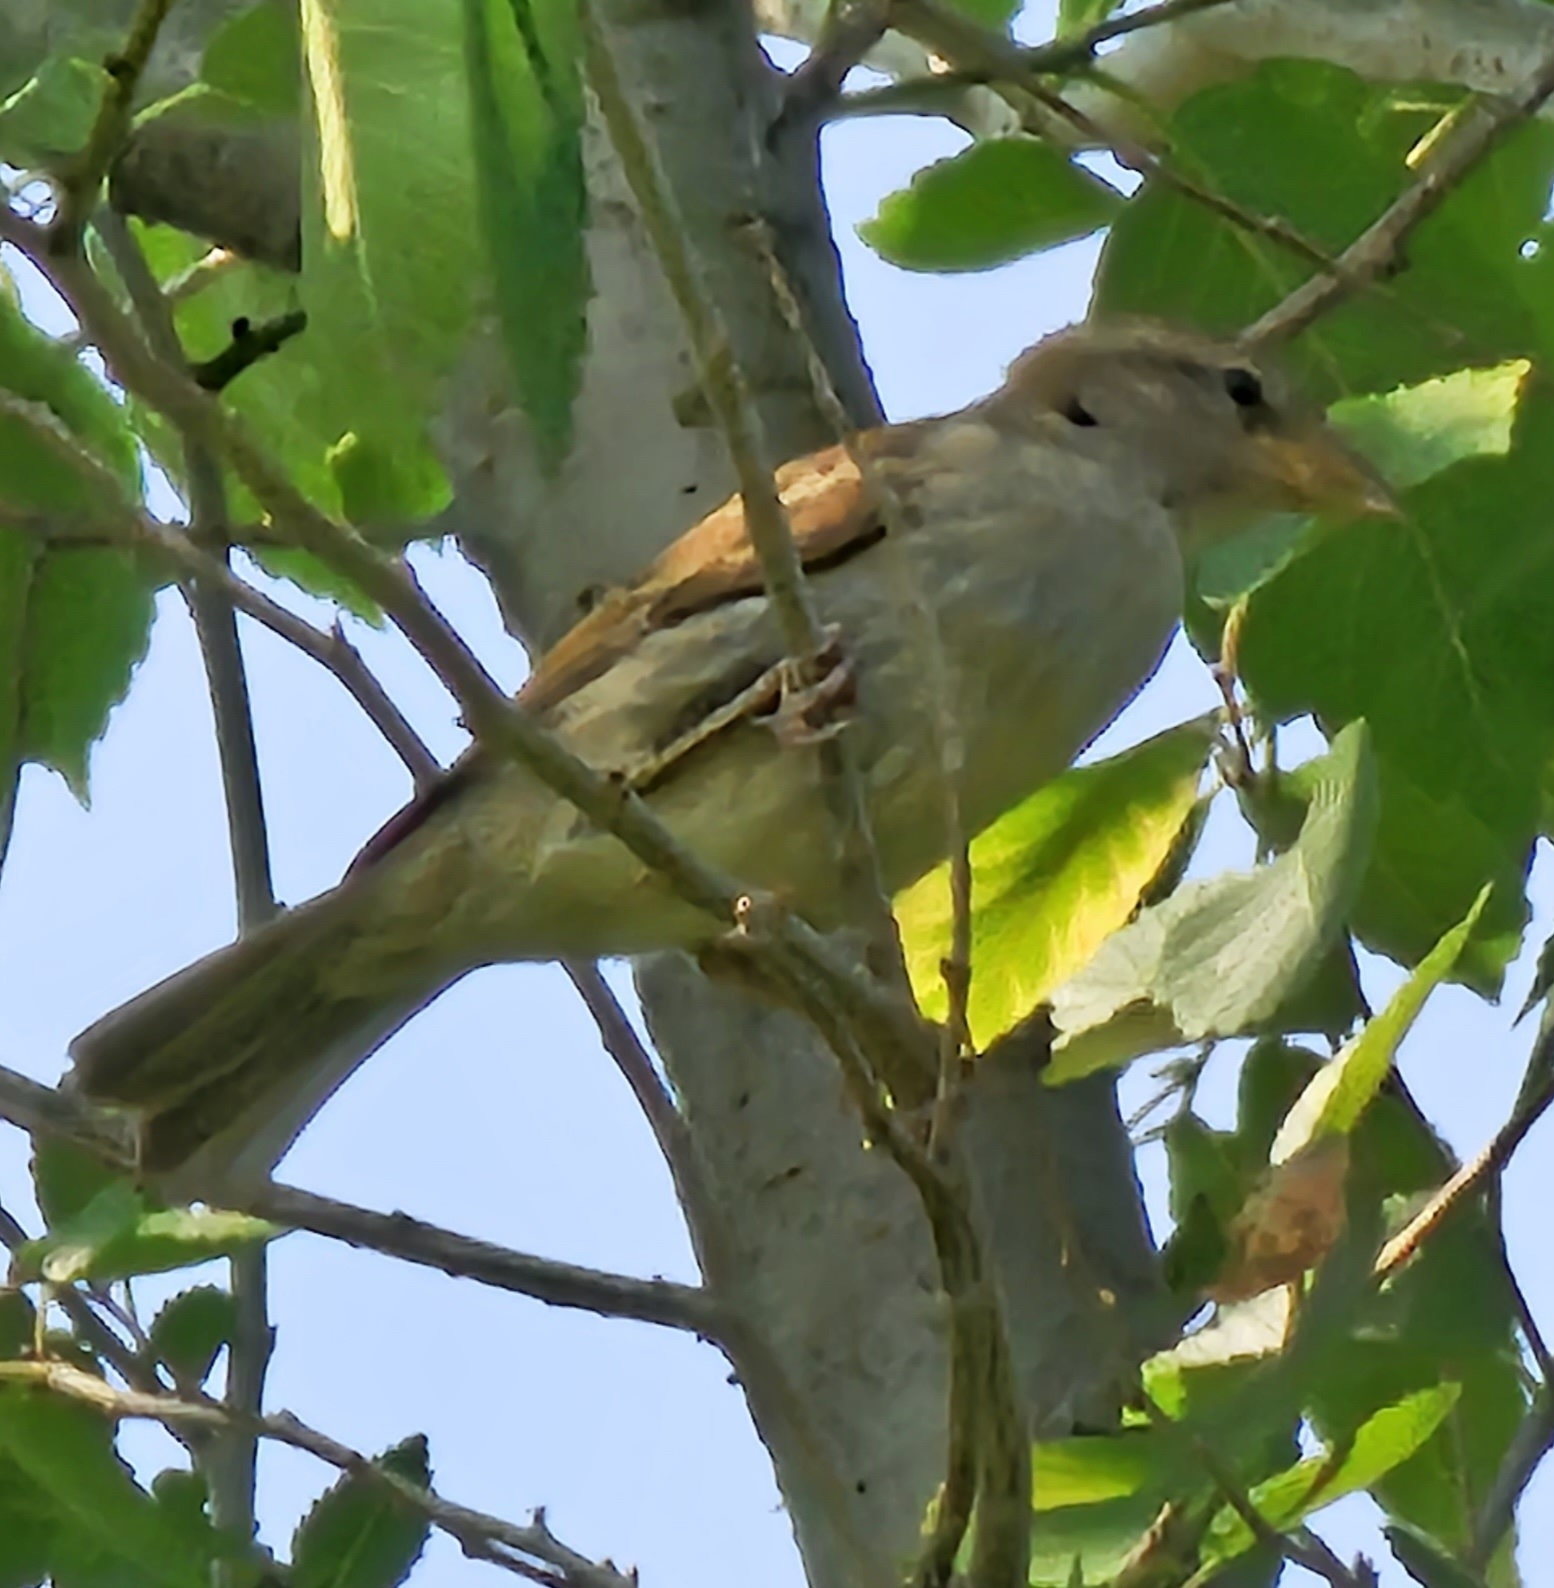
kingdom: Animalia
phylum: Chordata
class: Aves
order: Passeriformes
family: Passeridae
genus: Passer
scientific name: Passer domesticus
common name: House sparrow
